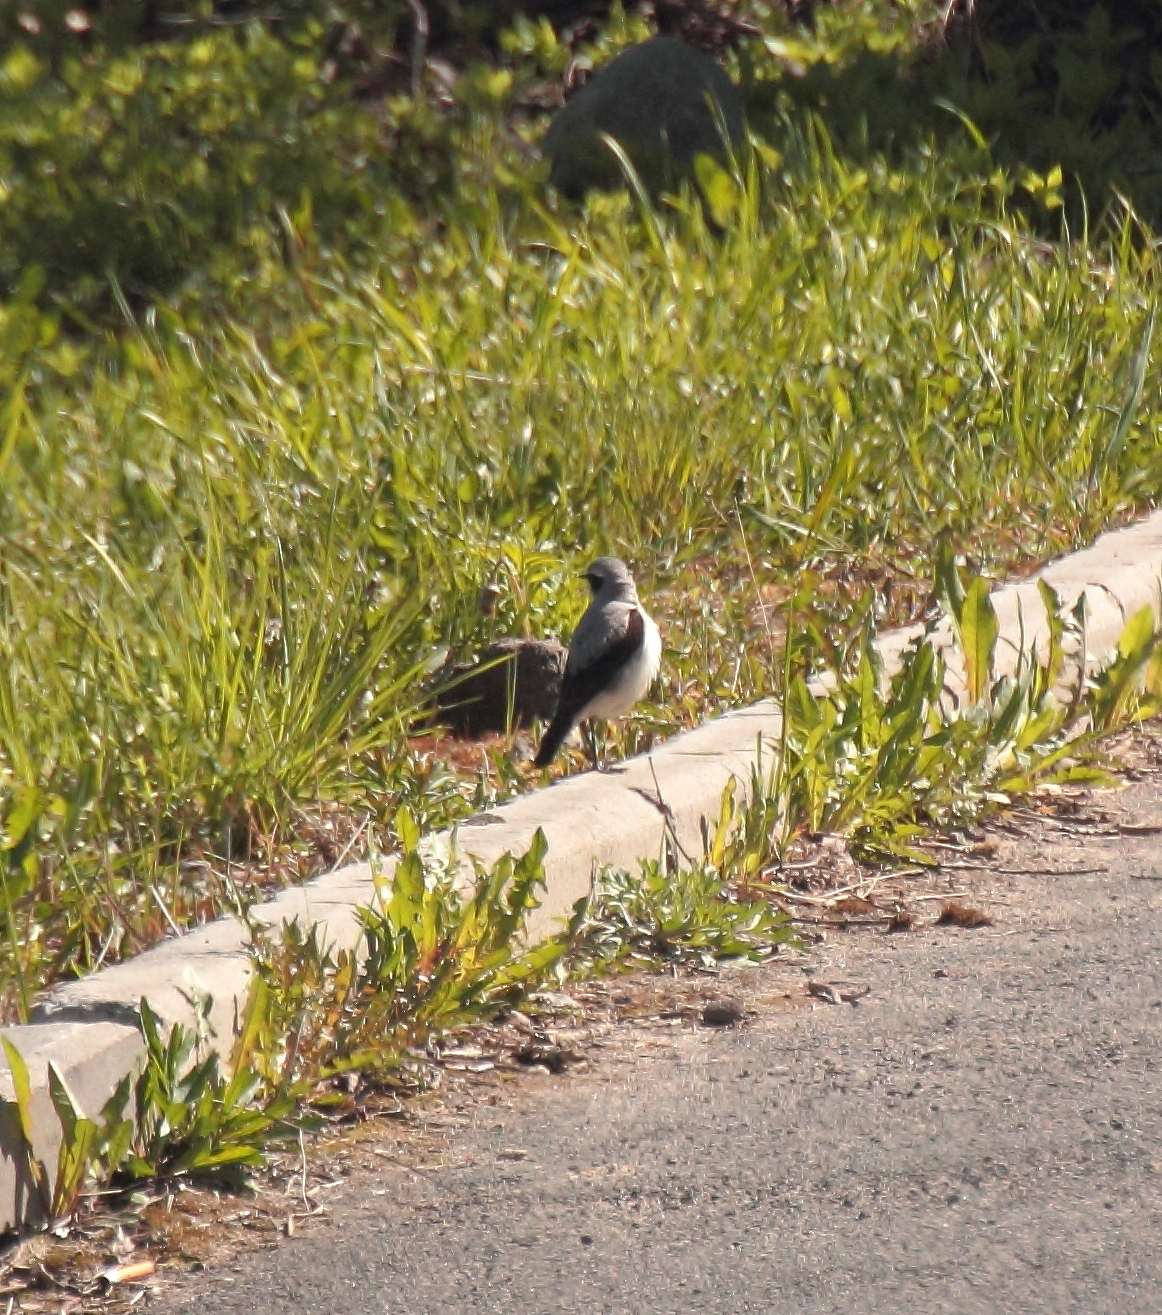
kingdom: Animalia
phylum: Chordata
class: Aves
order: Passeriformes
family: Muscicapidae
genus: Oenanthe
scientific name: Oenanthe oenanthe
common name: Northern wheatear
